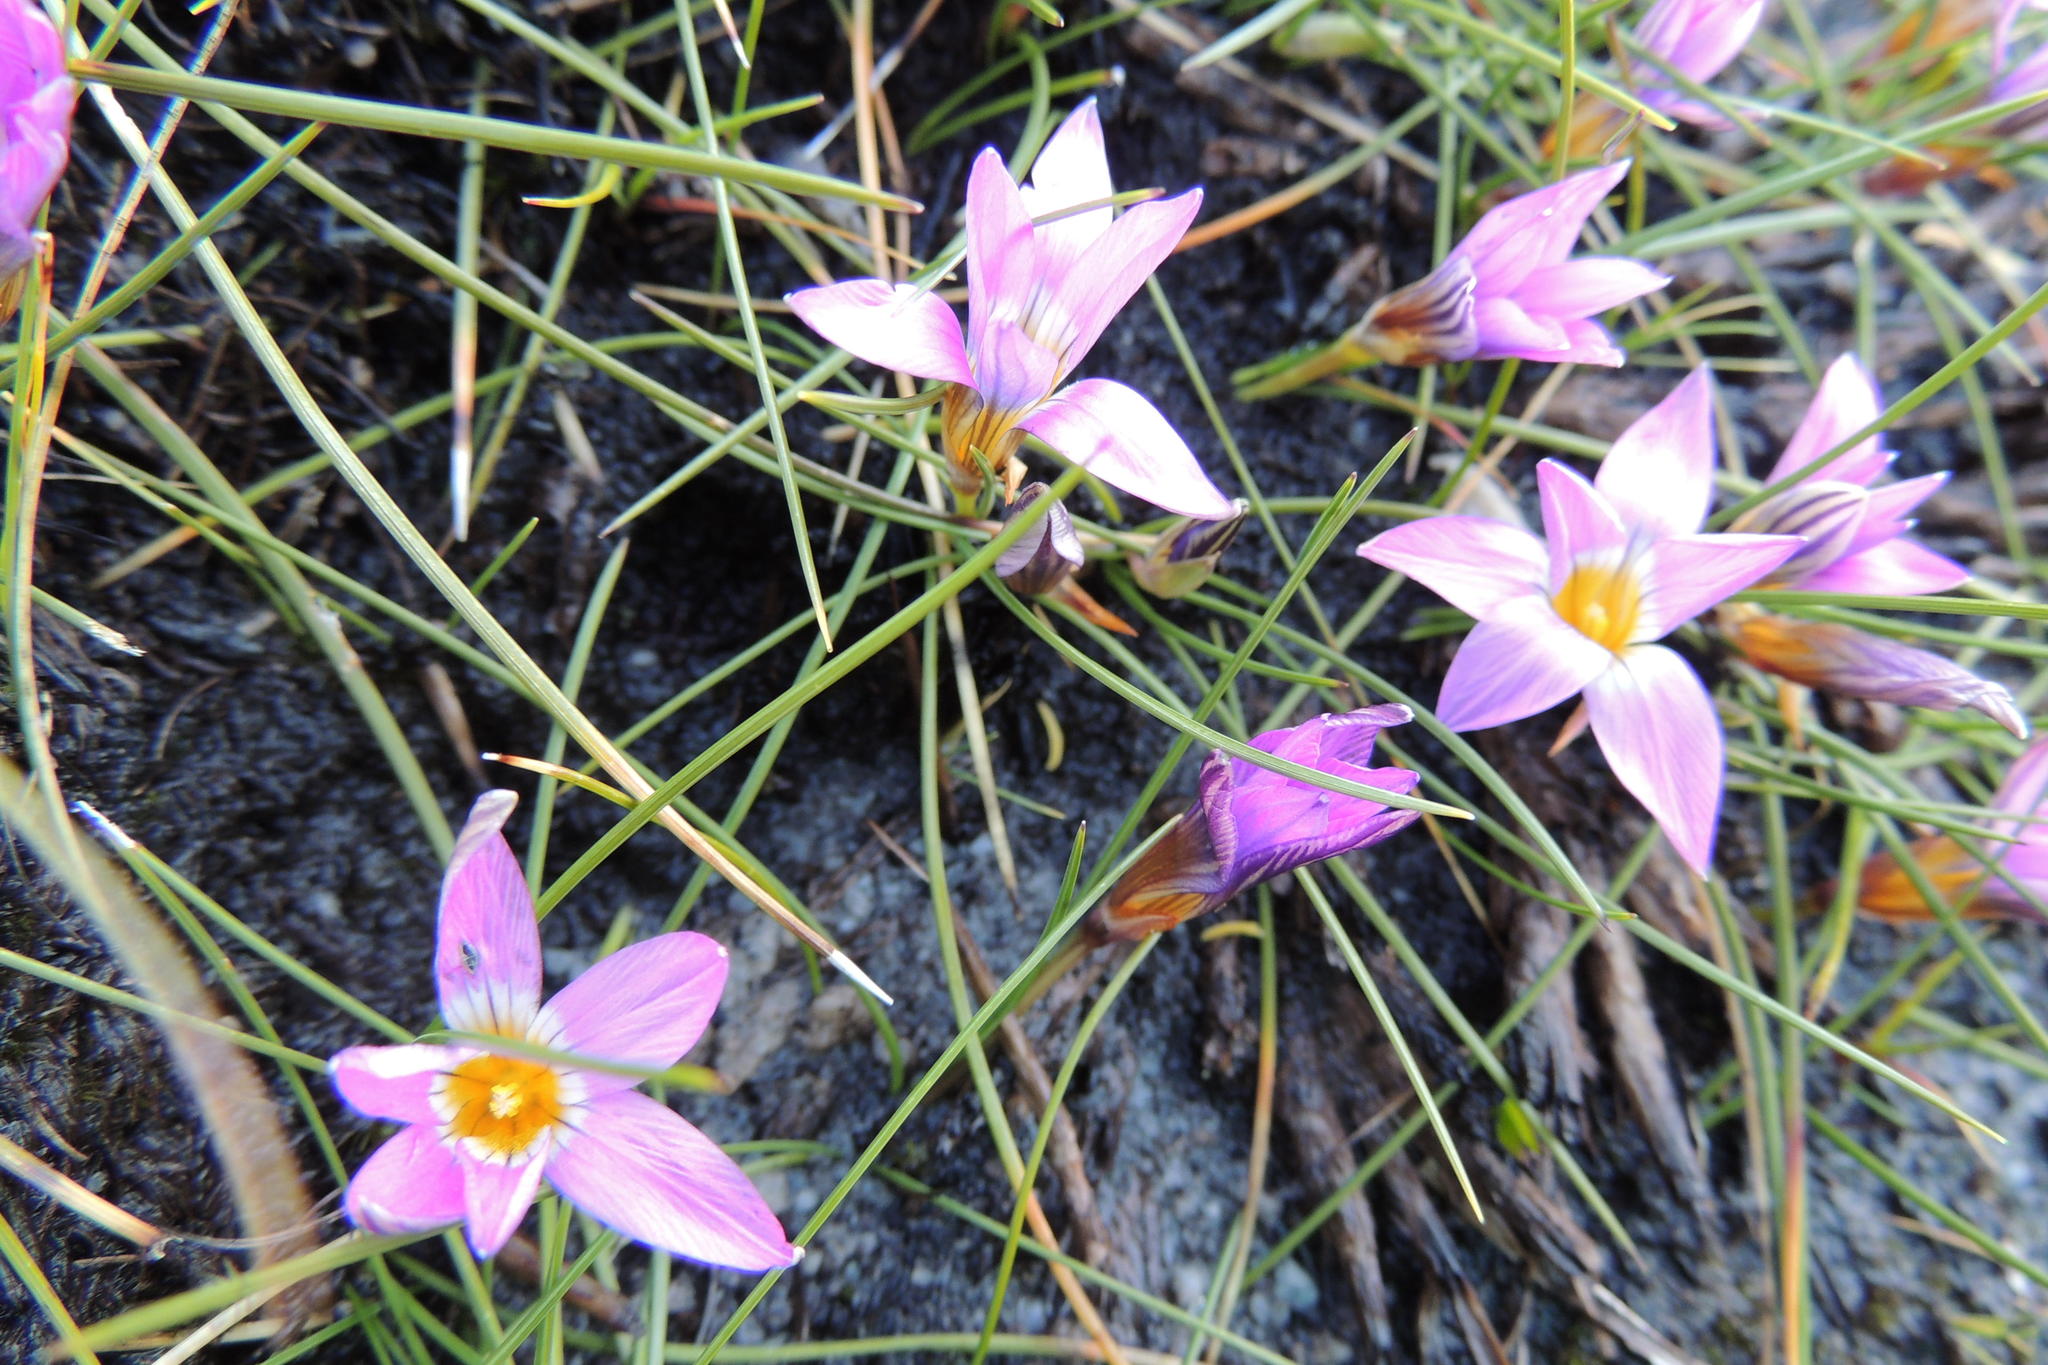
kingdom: Plantae
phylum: Tracheophyta
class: Liliopsida
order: Asparagales
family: Iridaceae
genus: Romulea
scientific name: Romulea minutiflora
